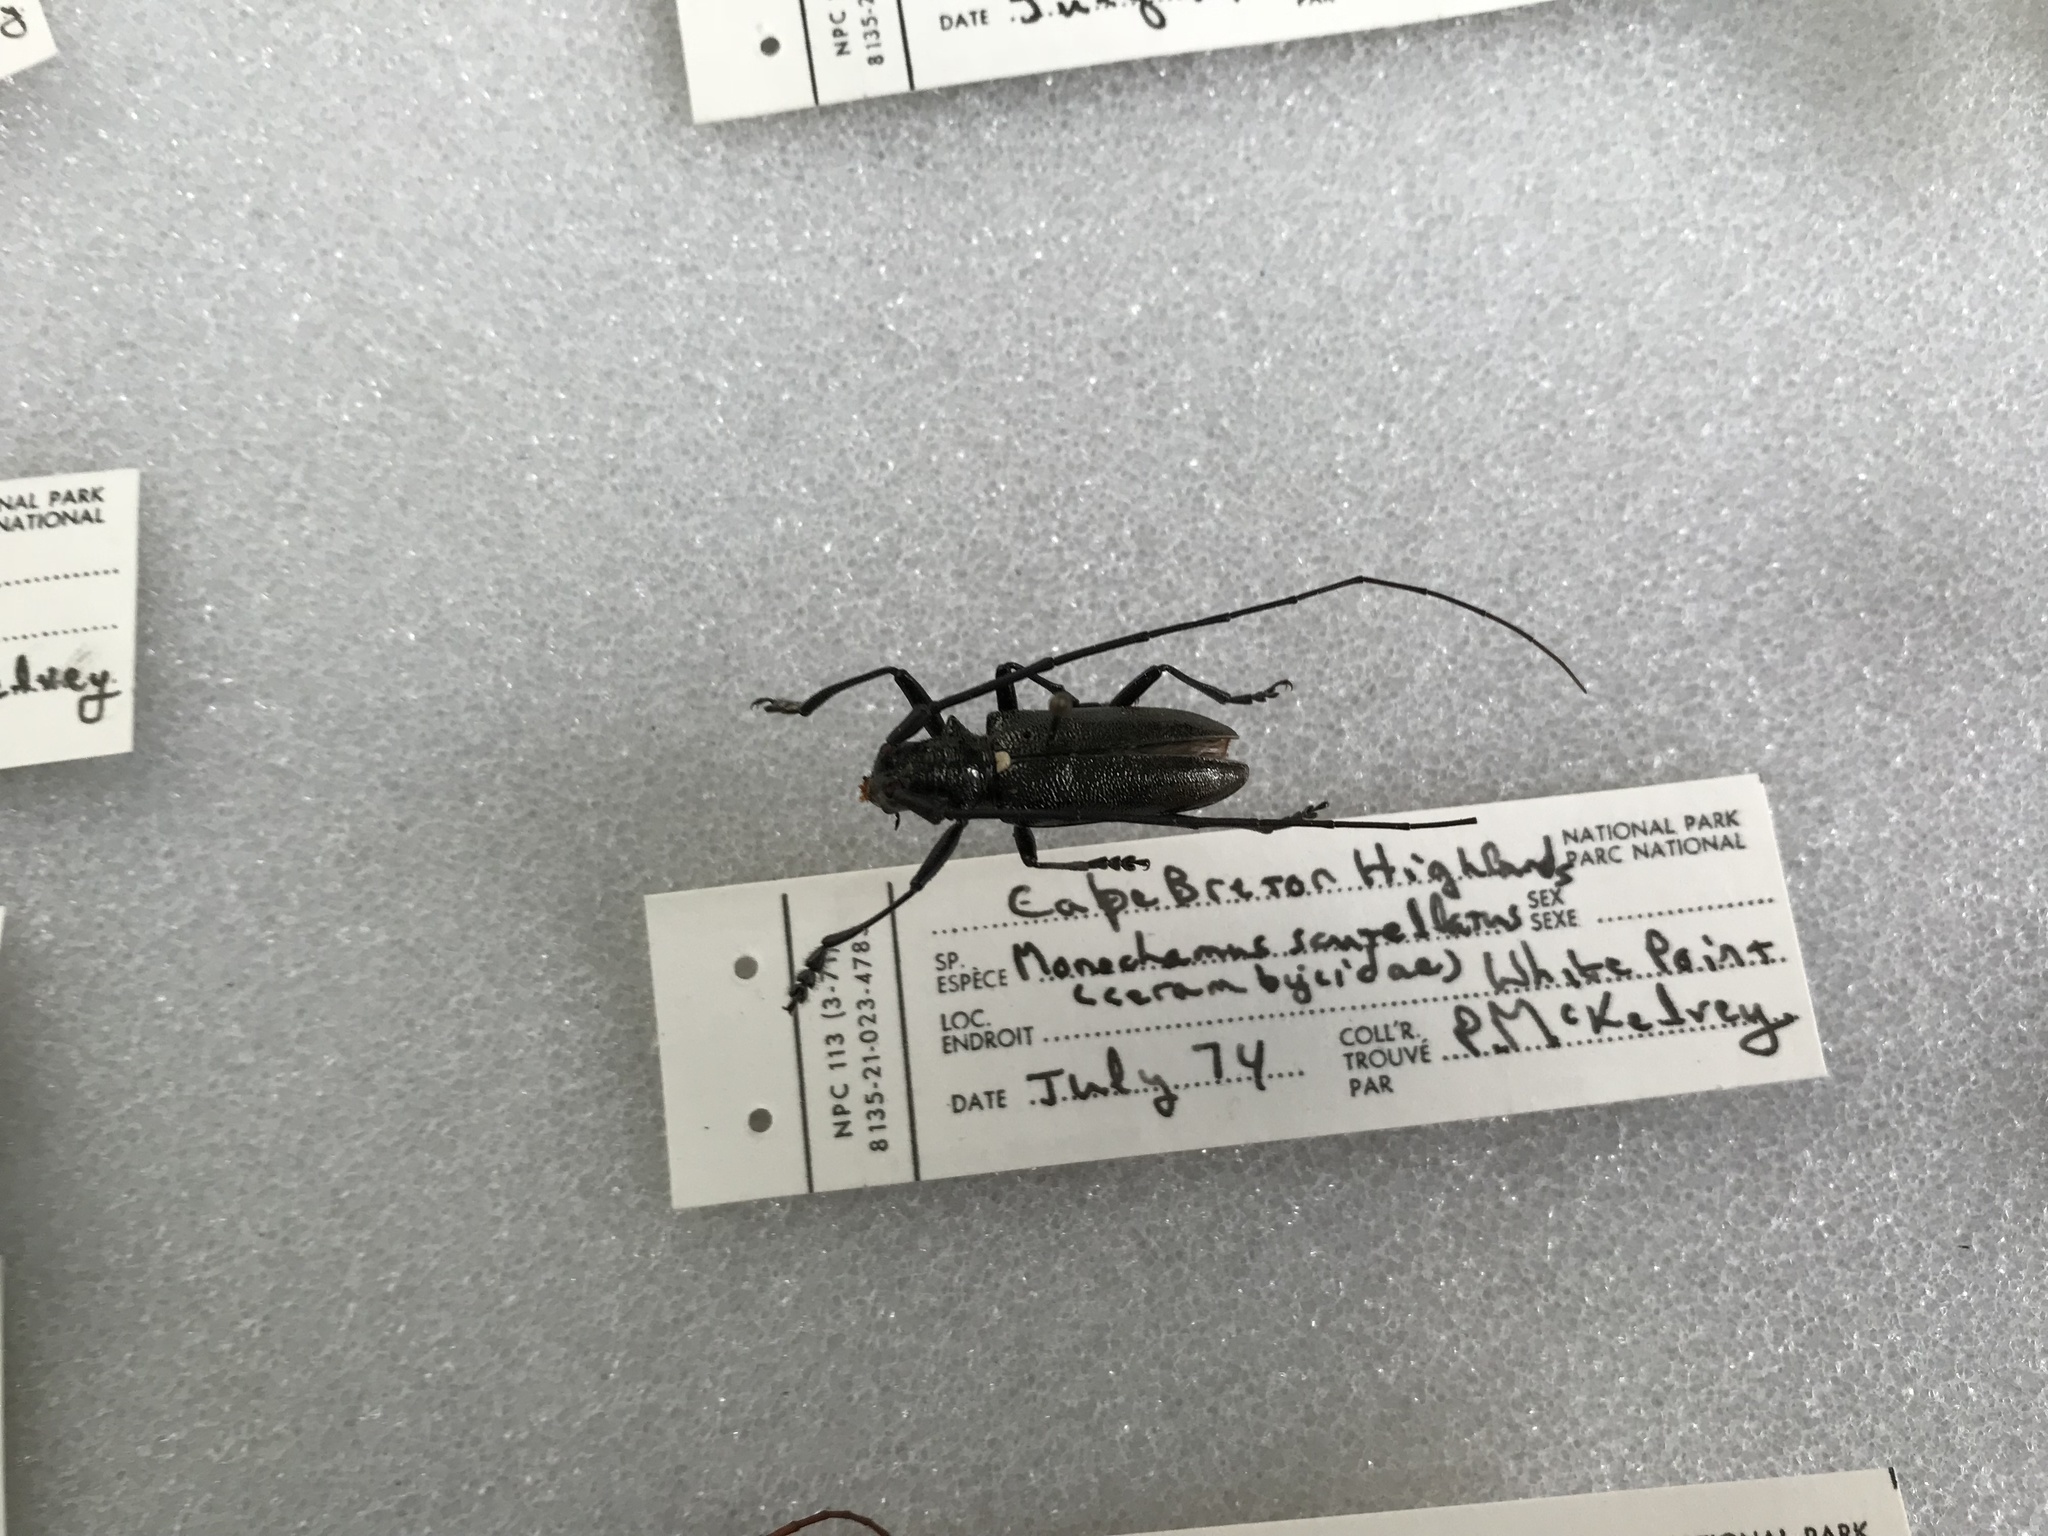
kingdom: Animalia
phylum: Arthropoda
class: Insecta
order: Coleoptera
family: Cerambycidae
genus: Monochamus
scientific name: Monochamus scutellatus
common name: White-spotted sawyer beetle
